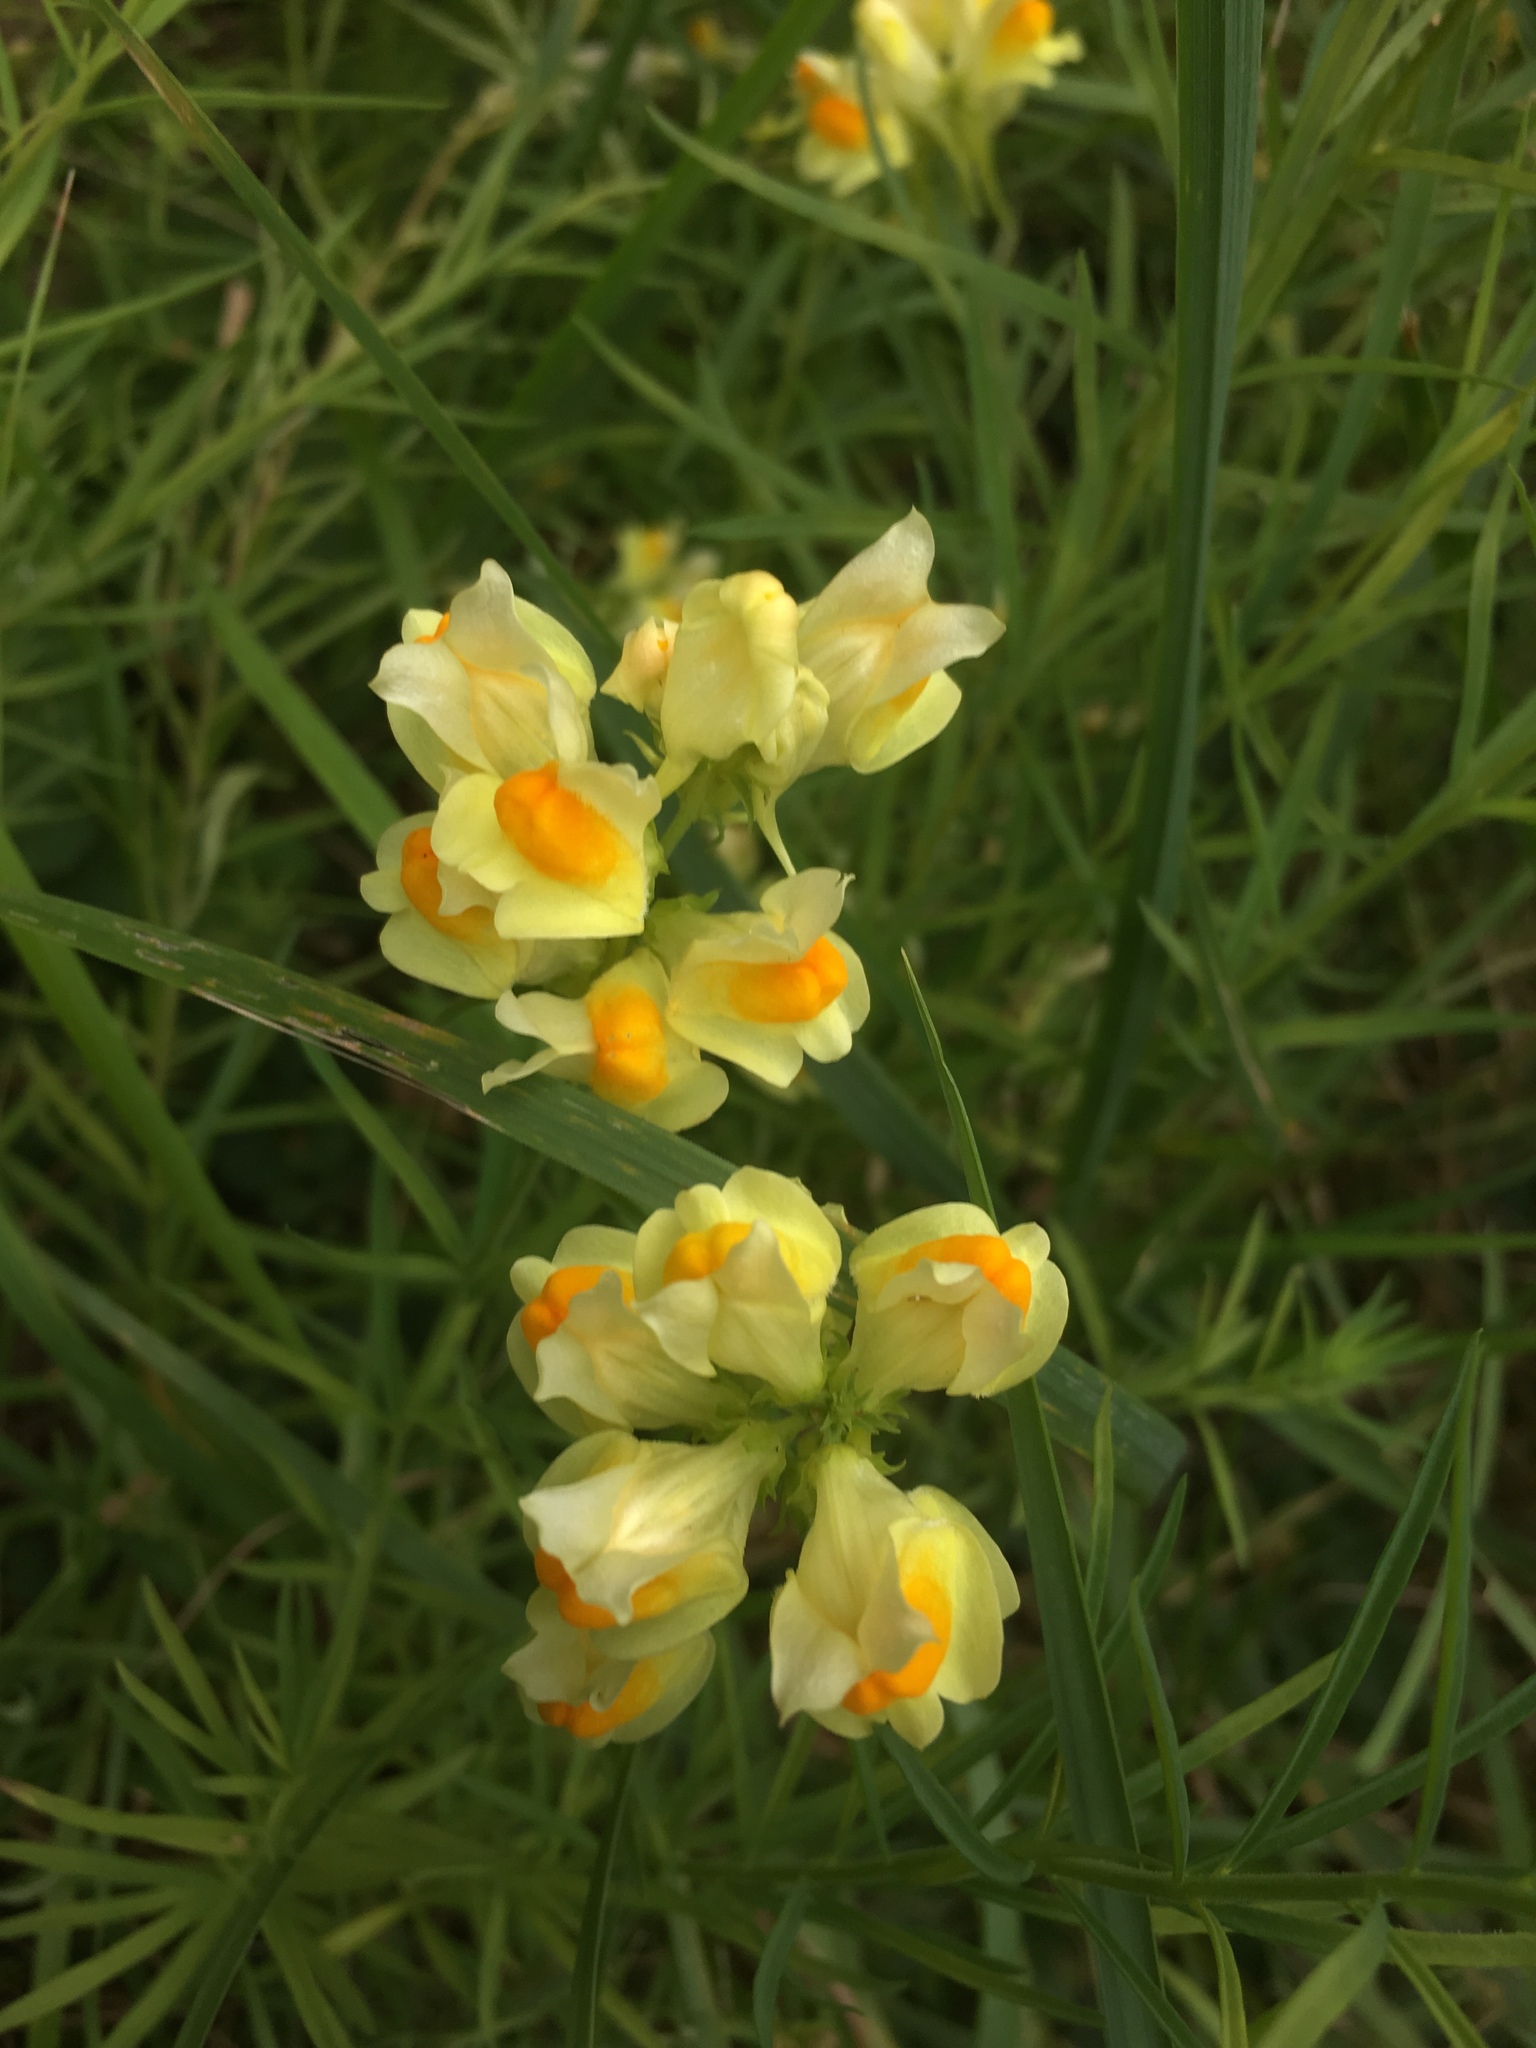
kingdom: Plantae
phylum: Tracheophyta
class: Magnoliopsida
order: Lamiales
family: Plantaginaceae
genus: Linaria
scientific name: Linaria vulgaris
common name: Butter and eggs
